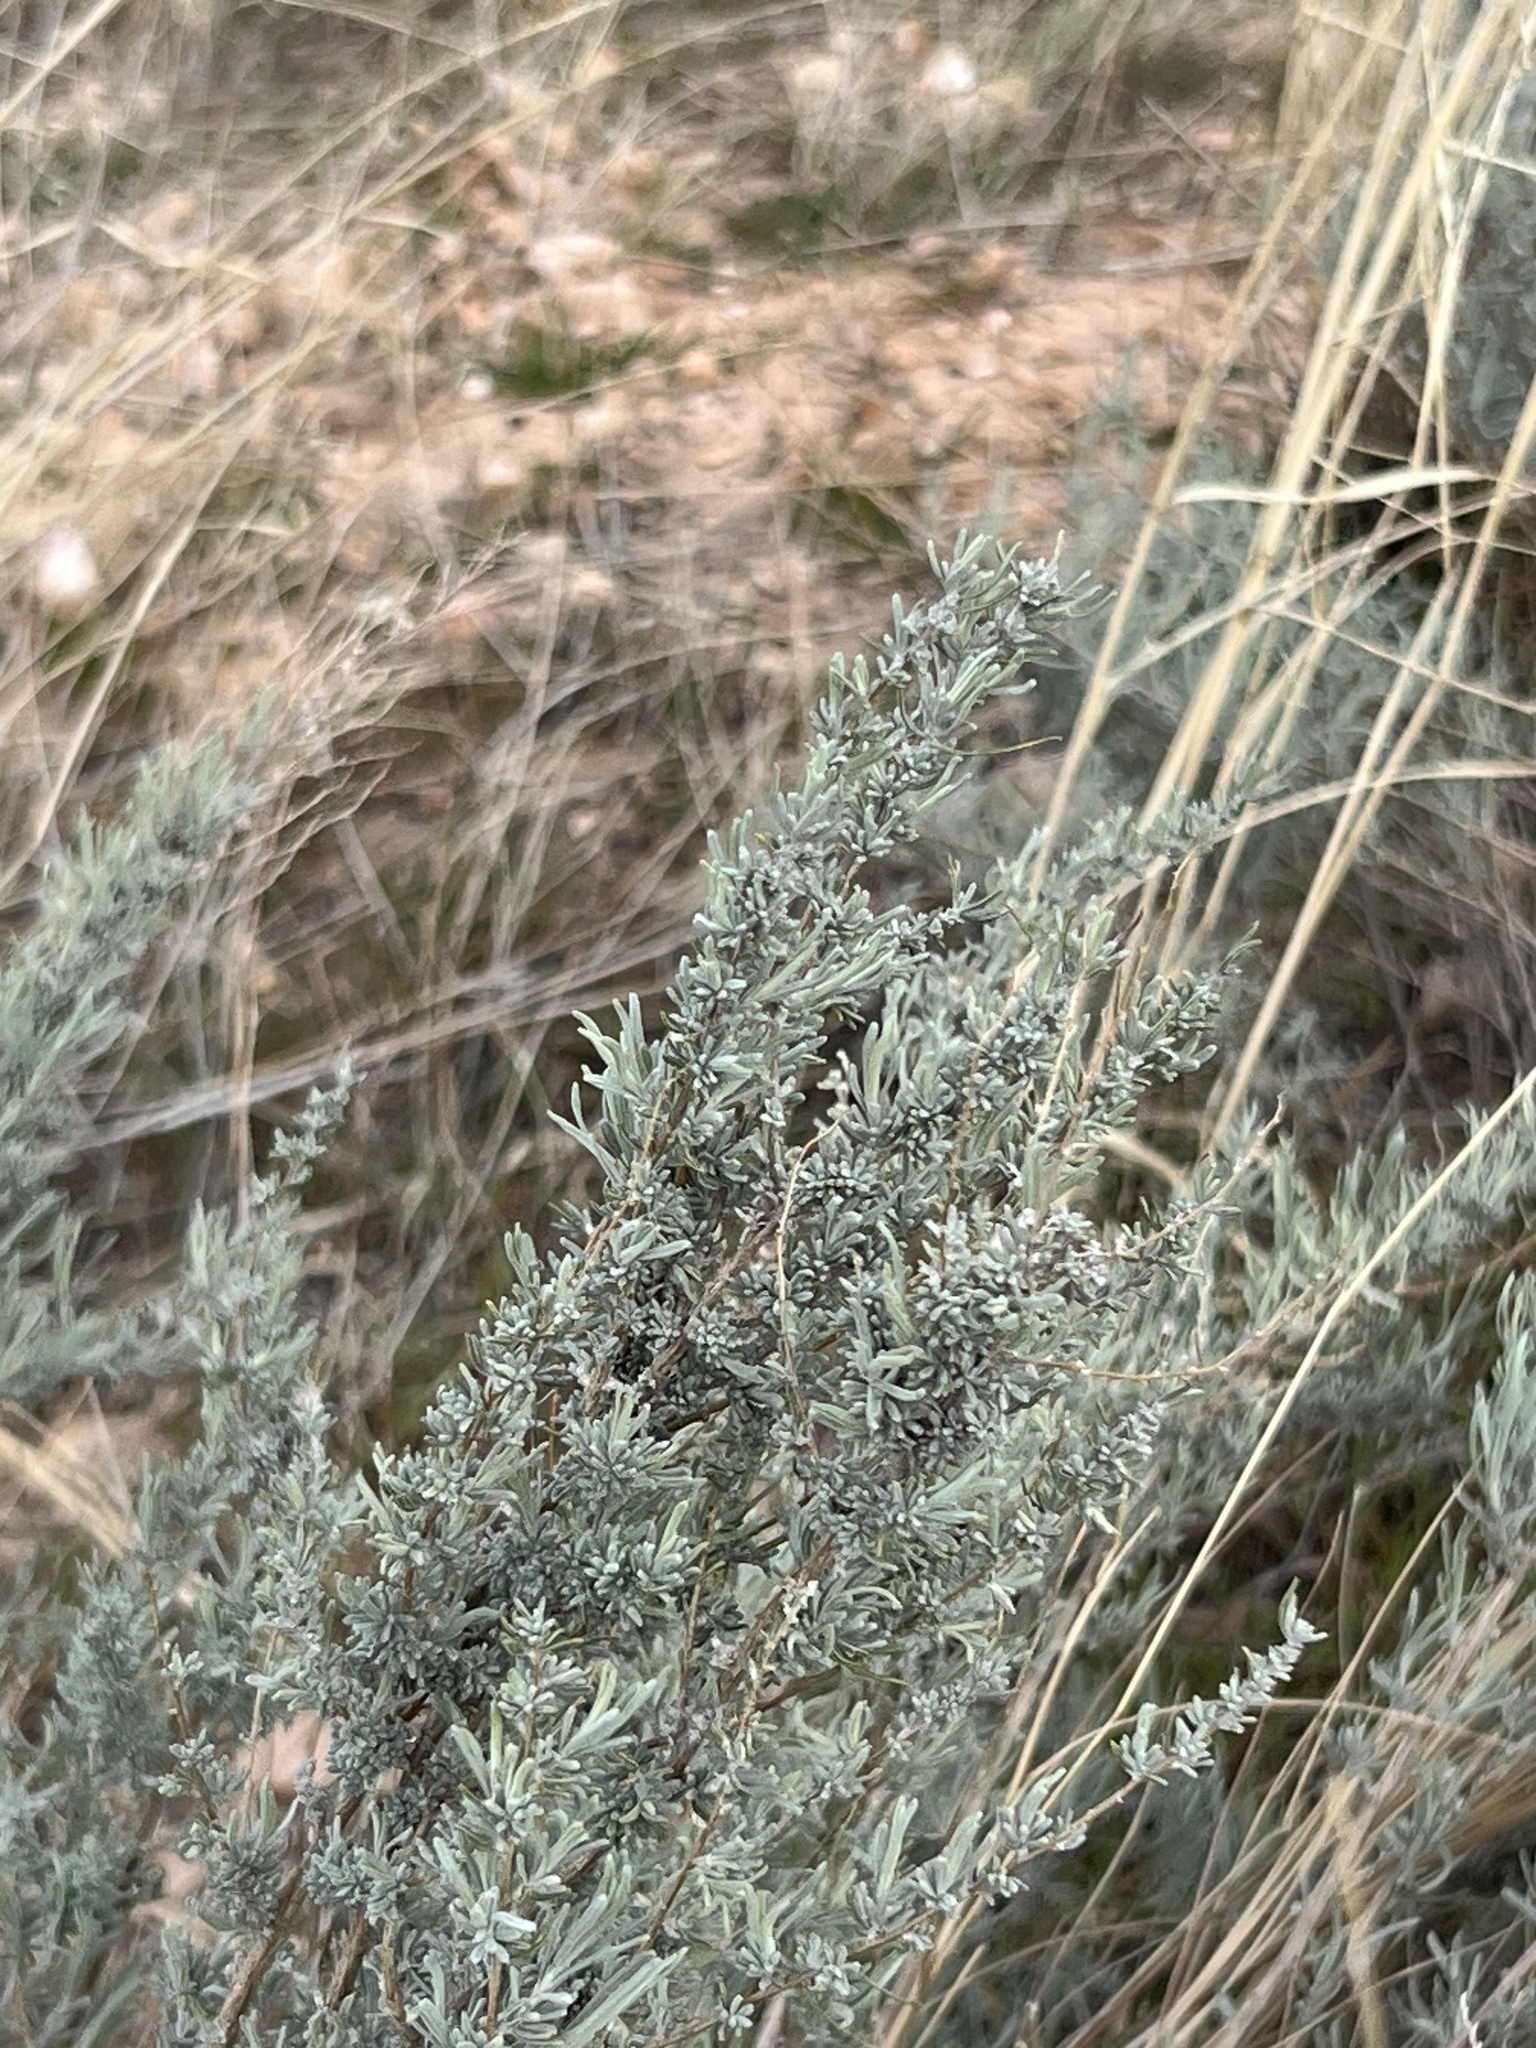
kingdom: Plantae
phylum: Tracheophyta
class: Magnoliopsida
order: Asterales
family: Asteraceae
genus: Artemisia
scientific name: Artemisia filifolia
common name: Sand-sage
